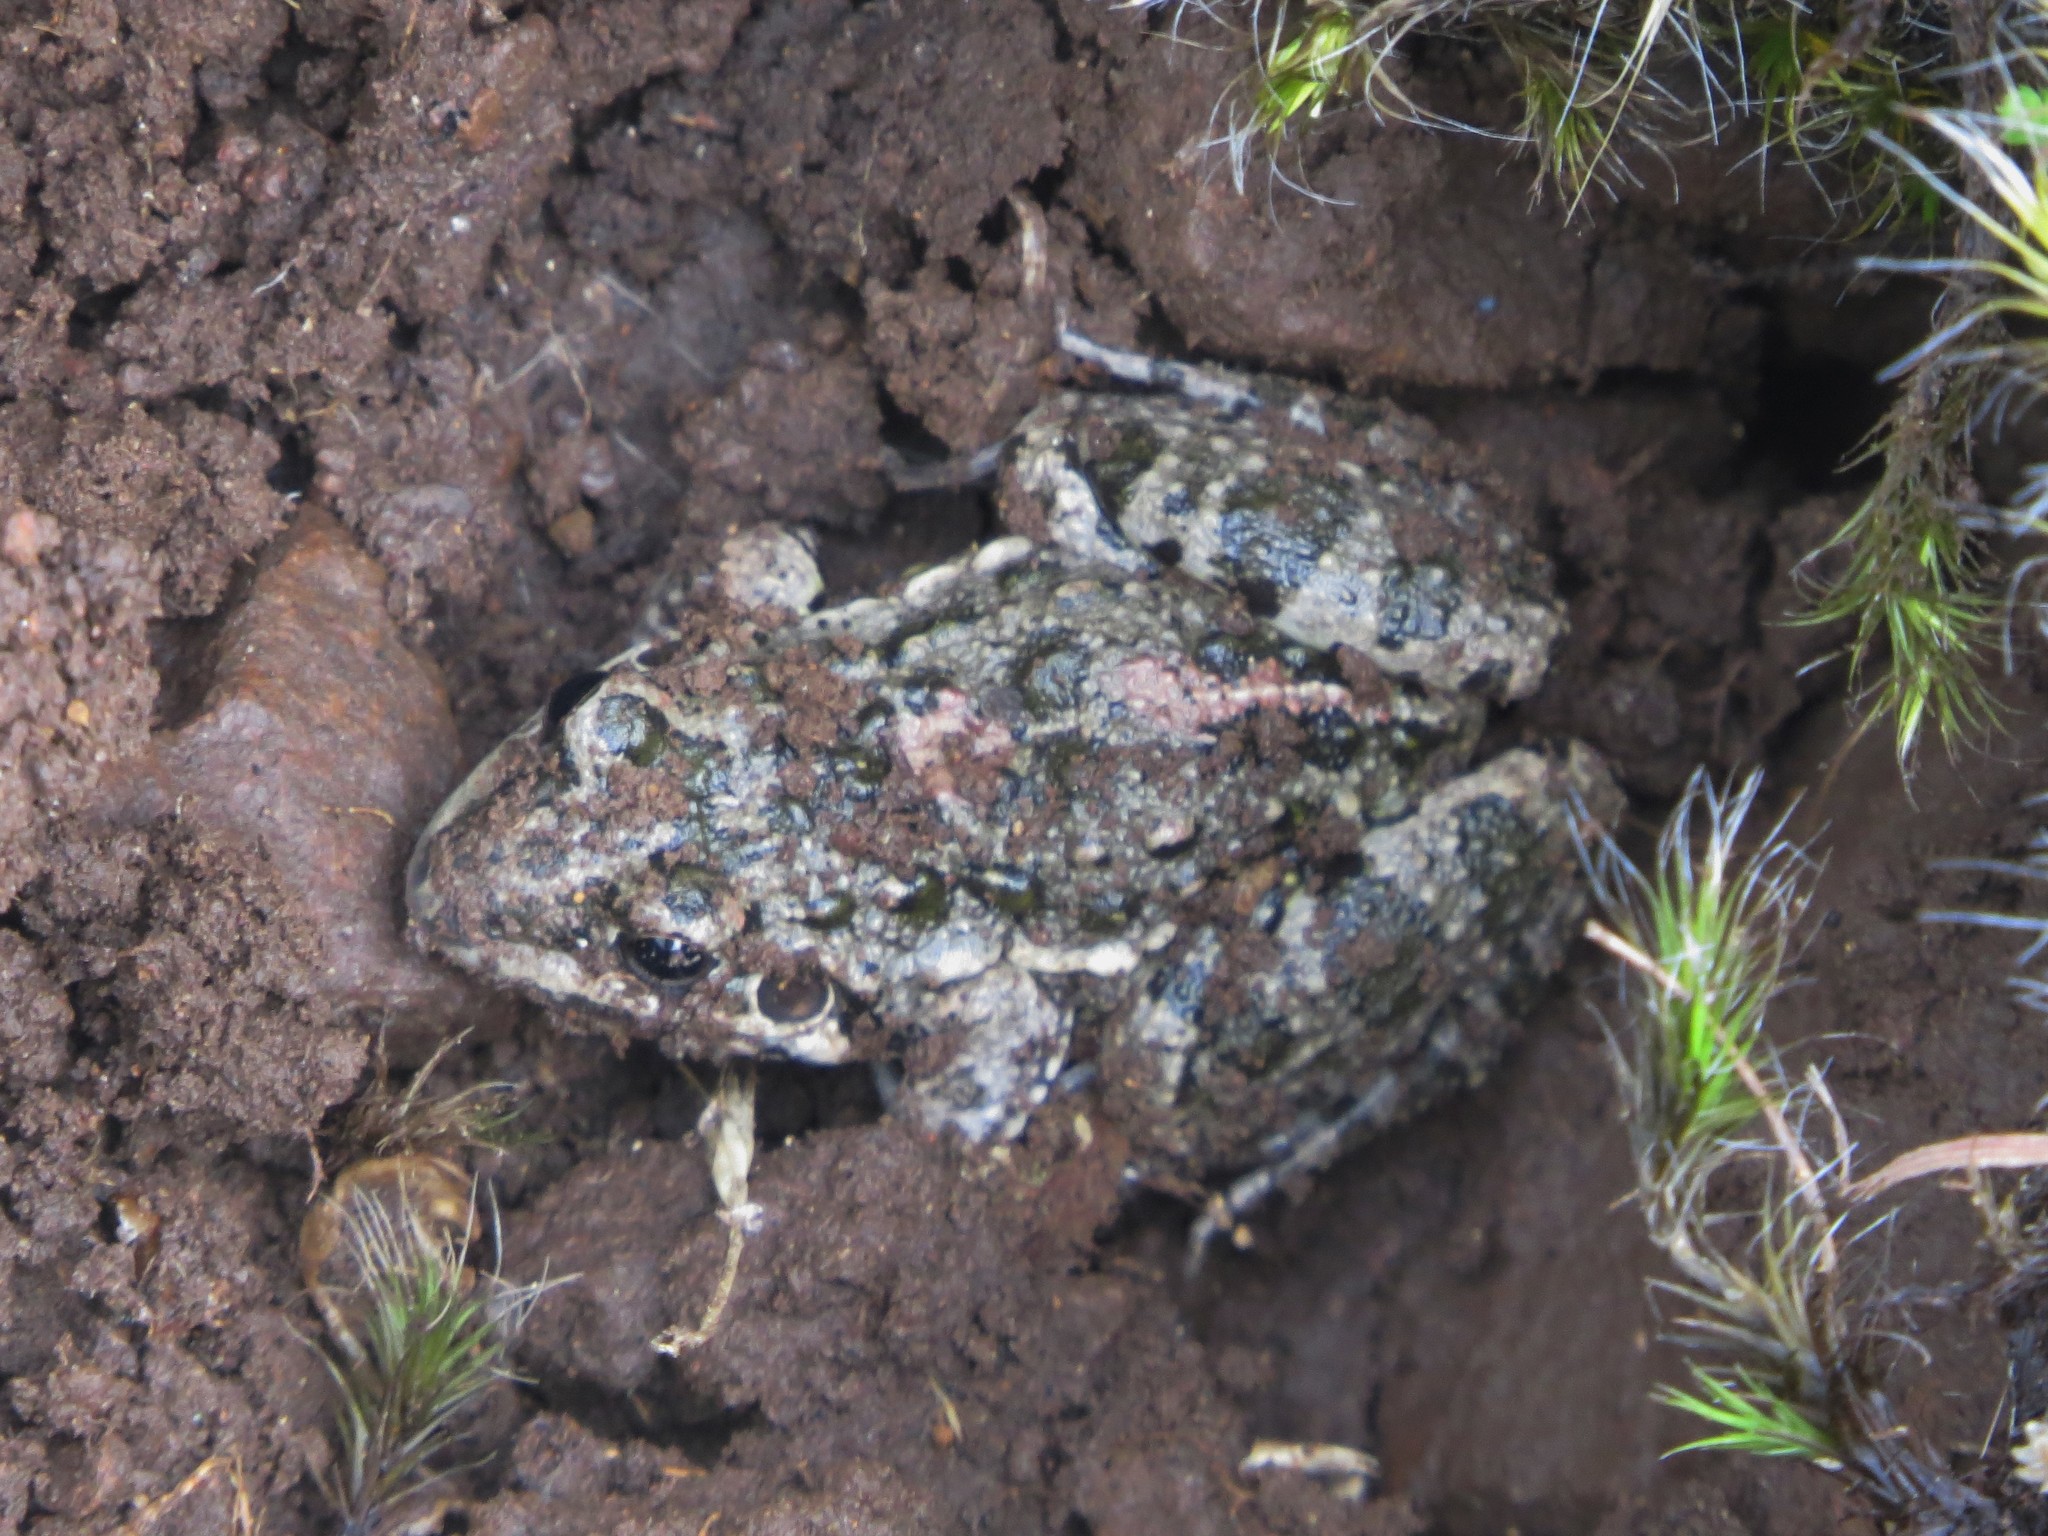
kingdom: Animalia
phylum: Chordata
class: Amphibia
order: Anura
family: Leptodactylidae
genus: Leptodactylus
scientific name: Leptodactylus latinasus
